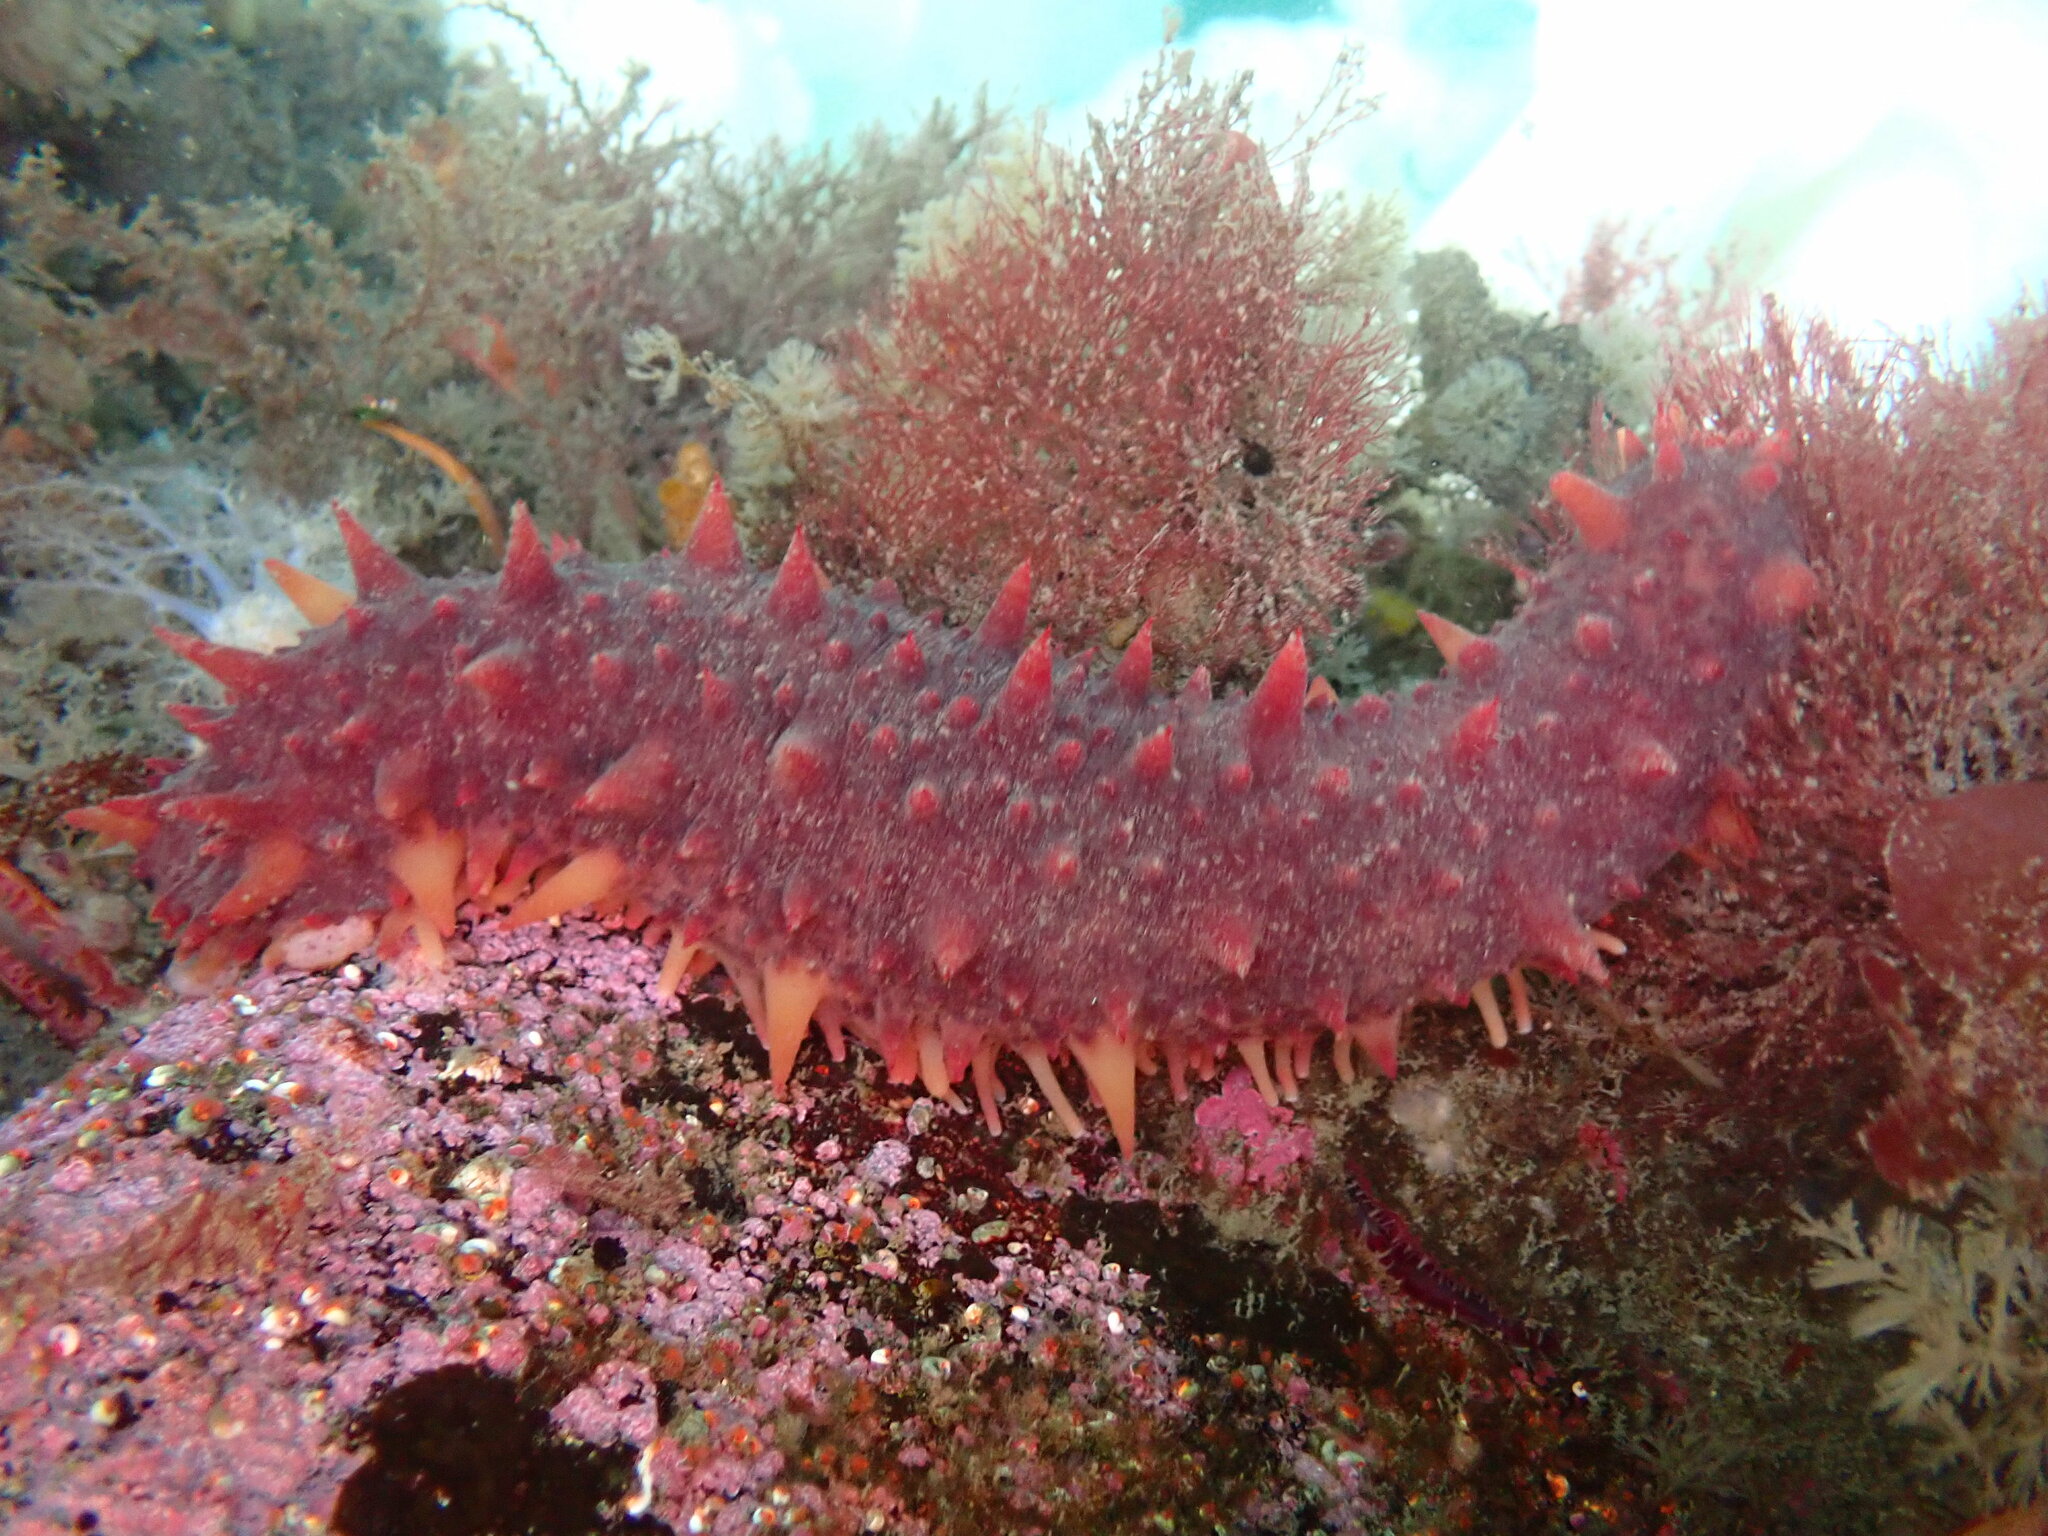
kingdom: Animalia
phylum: Echinodermata
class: Holothuroidea
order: Synallactida
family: Stichopodidae
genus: Apostichopus
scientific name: Apostichopus californicus
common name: California sea cucumber
